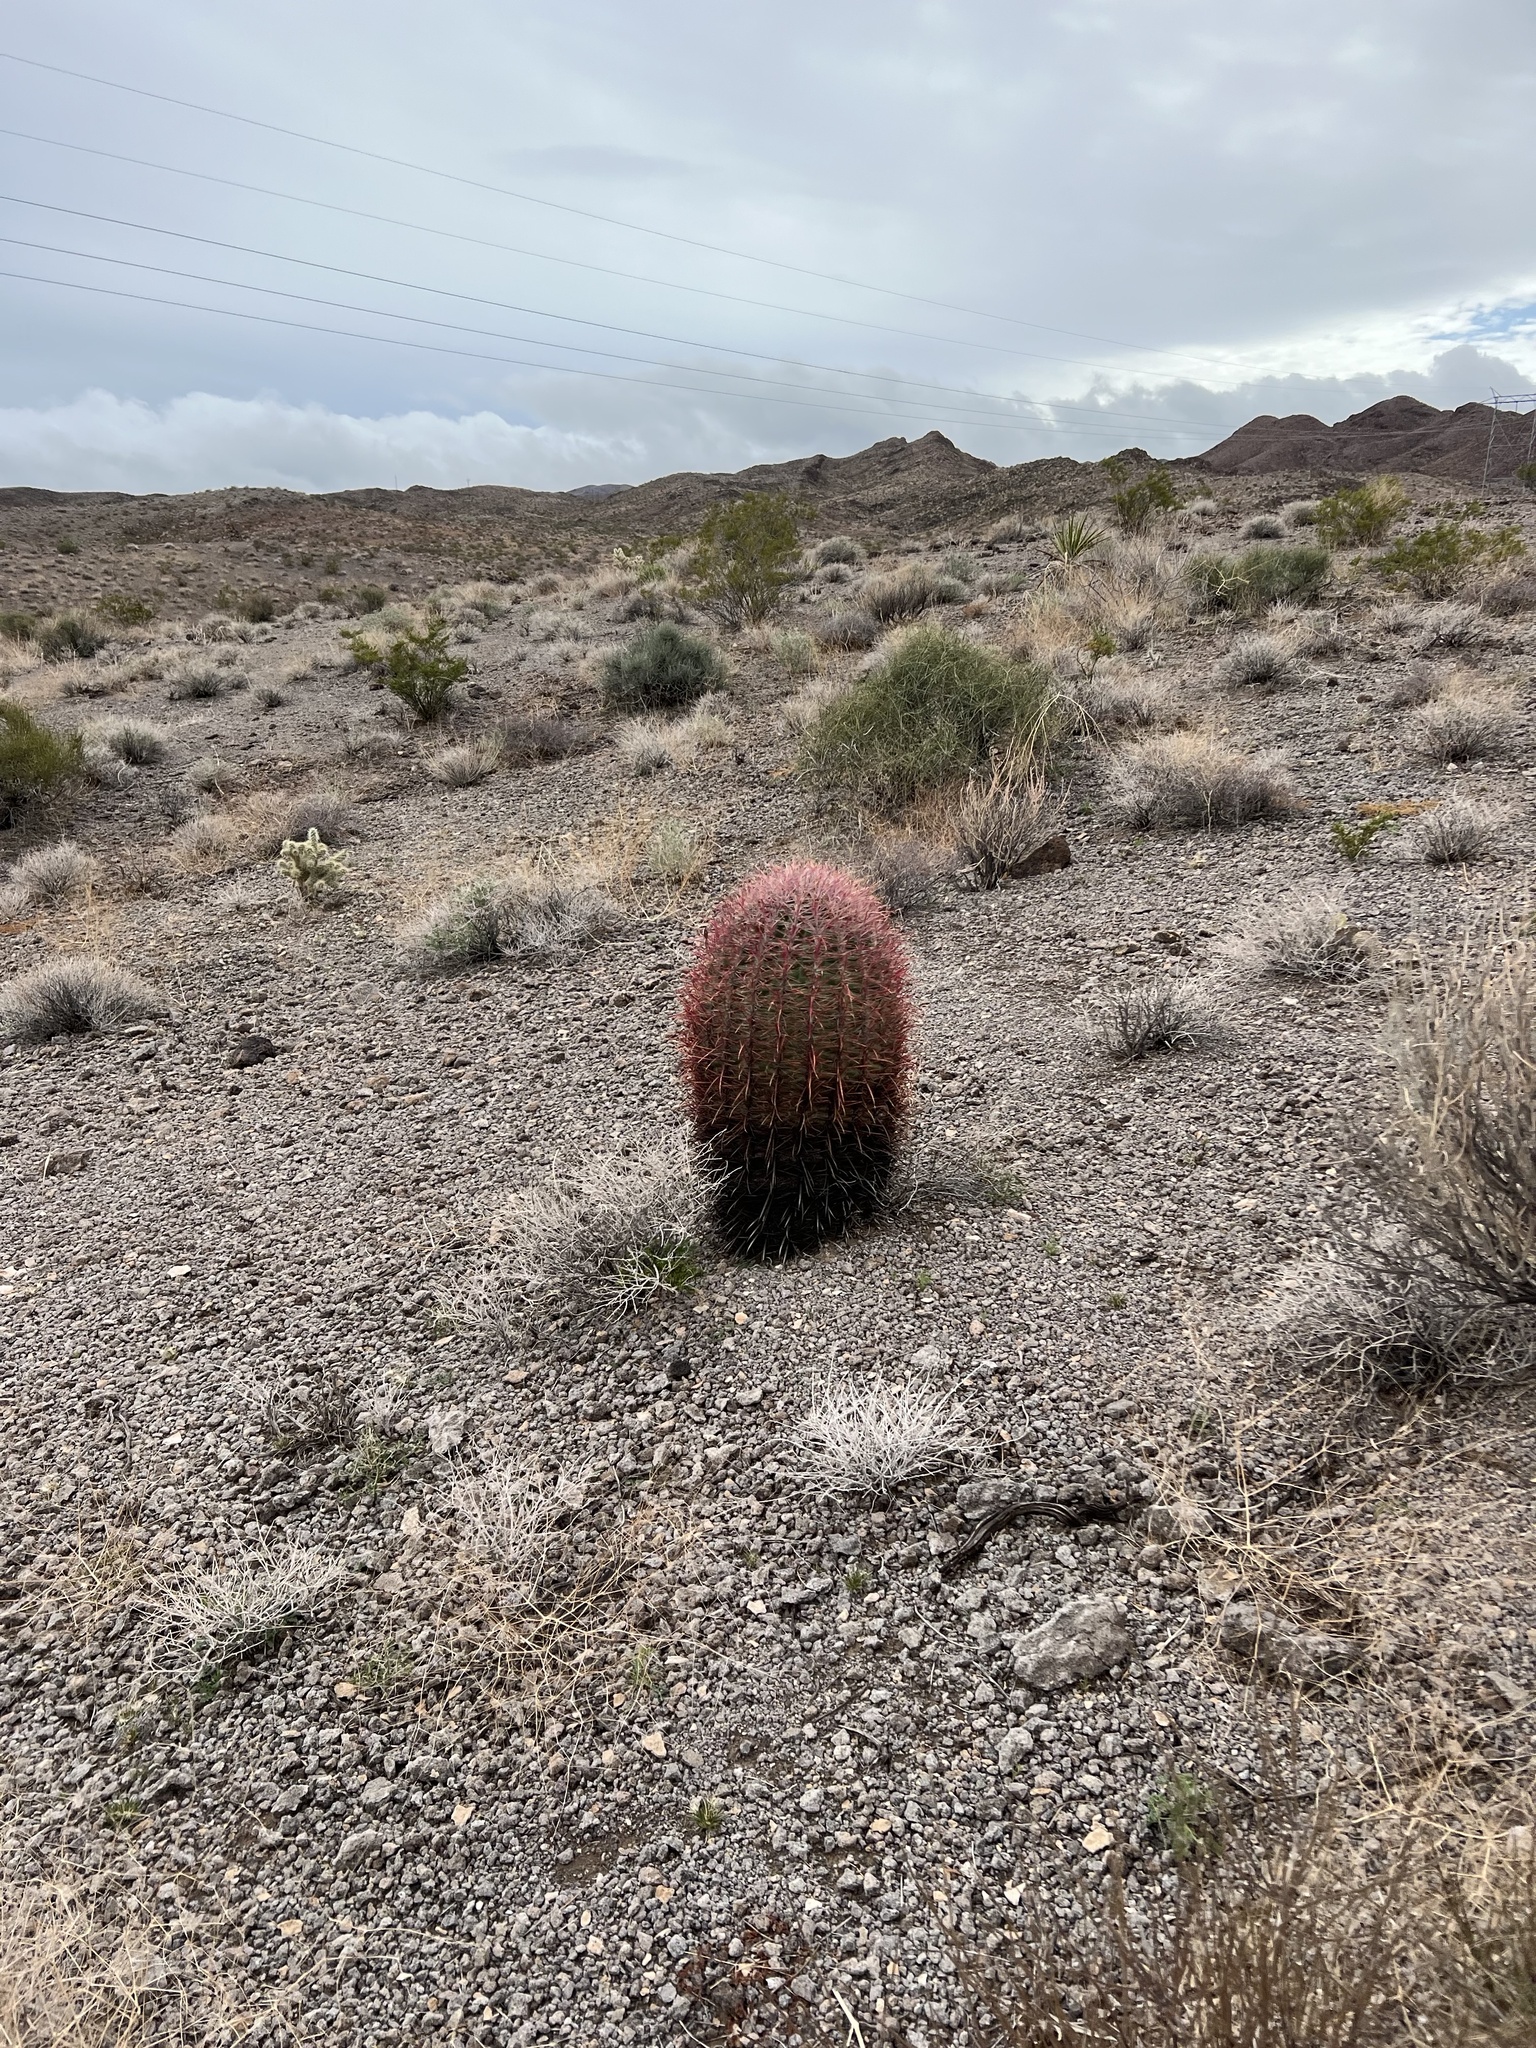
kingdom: Plantae
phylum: Tracheophyta
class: Magnoliopsida
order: Caryophyllales
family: Cactaceae
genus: Ferocactus
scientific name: Ferocactus cylindraceus
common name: California barrel cactus
